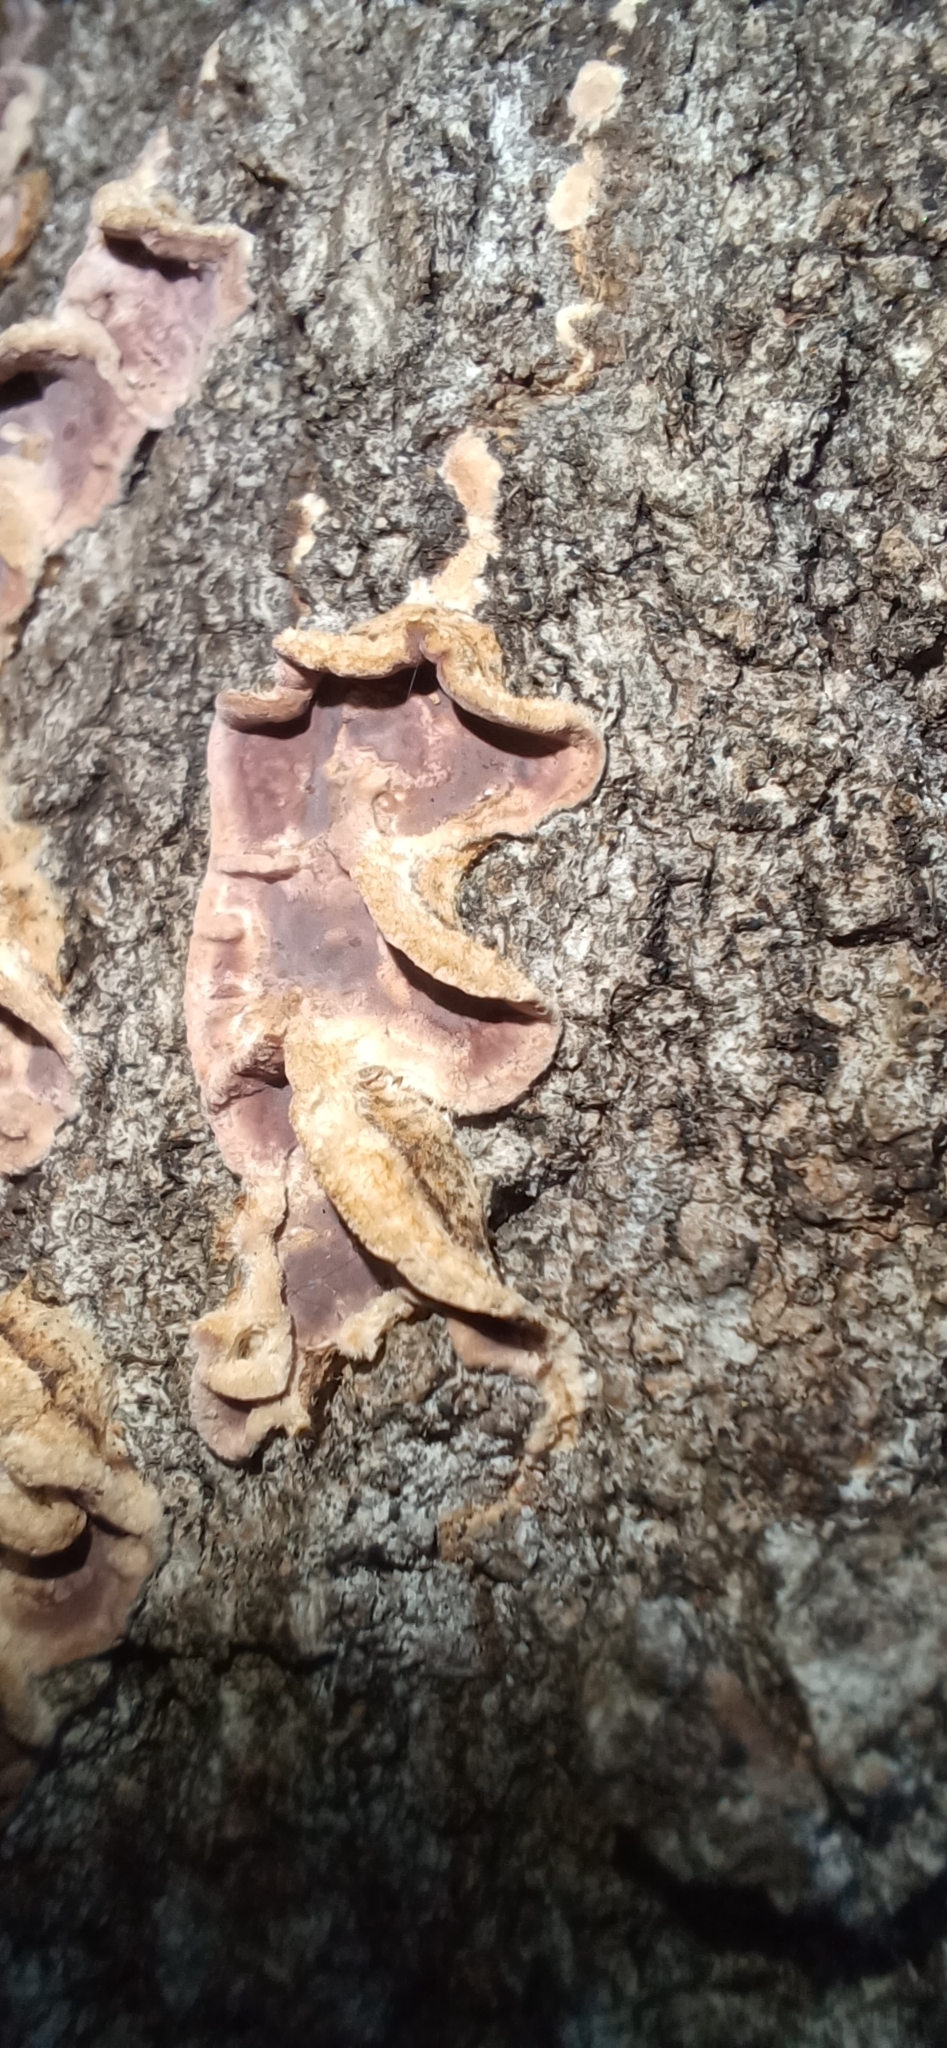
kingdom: Fungi
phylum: Basidiomycota
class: Agaricomycetes
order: Agaricales
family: Cyphellaceae
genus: Chondrostereum
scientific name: Chondrostereum purpureum
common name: Silver leaf disease
